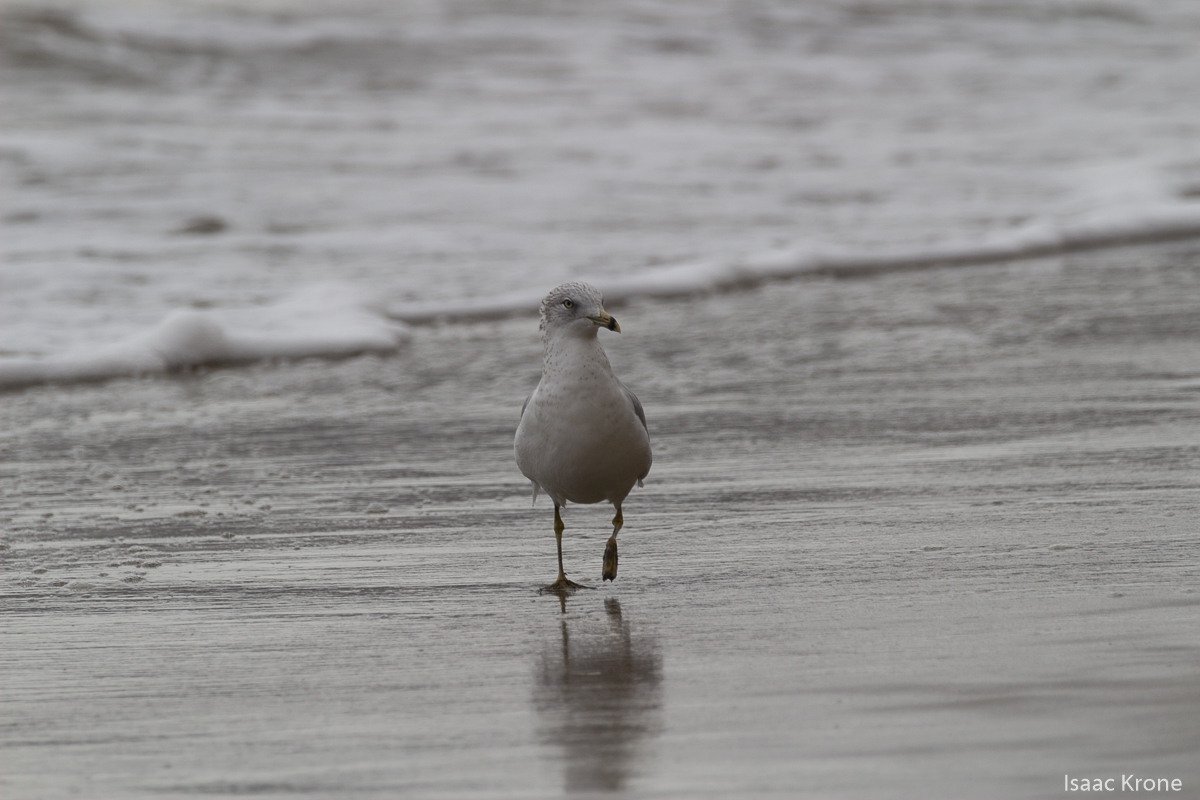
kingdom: Animalia
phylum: Chordata
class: Aves
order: Charadriiformes
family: Laridae
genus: Larus
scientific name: Larus delawarensis
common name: Ring-billed gull
